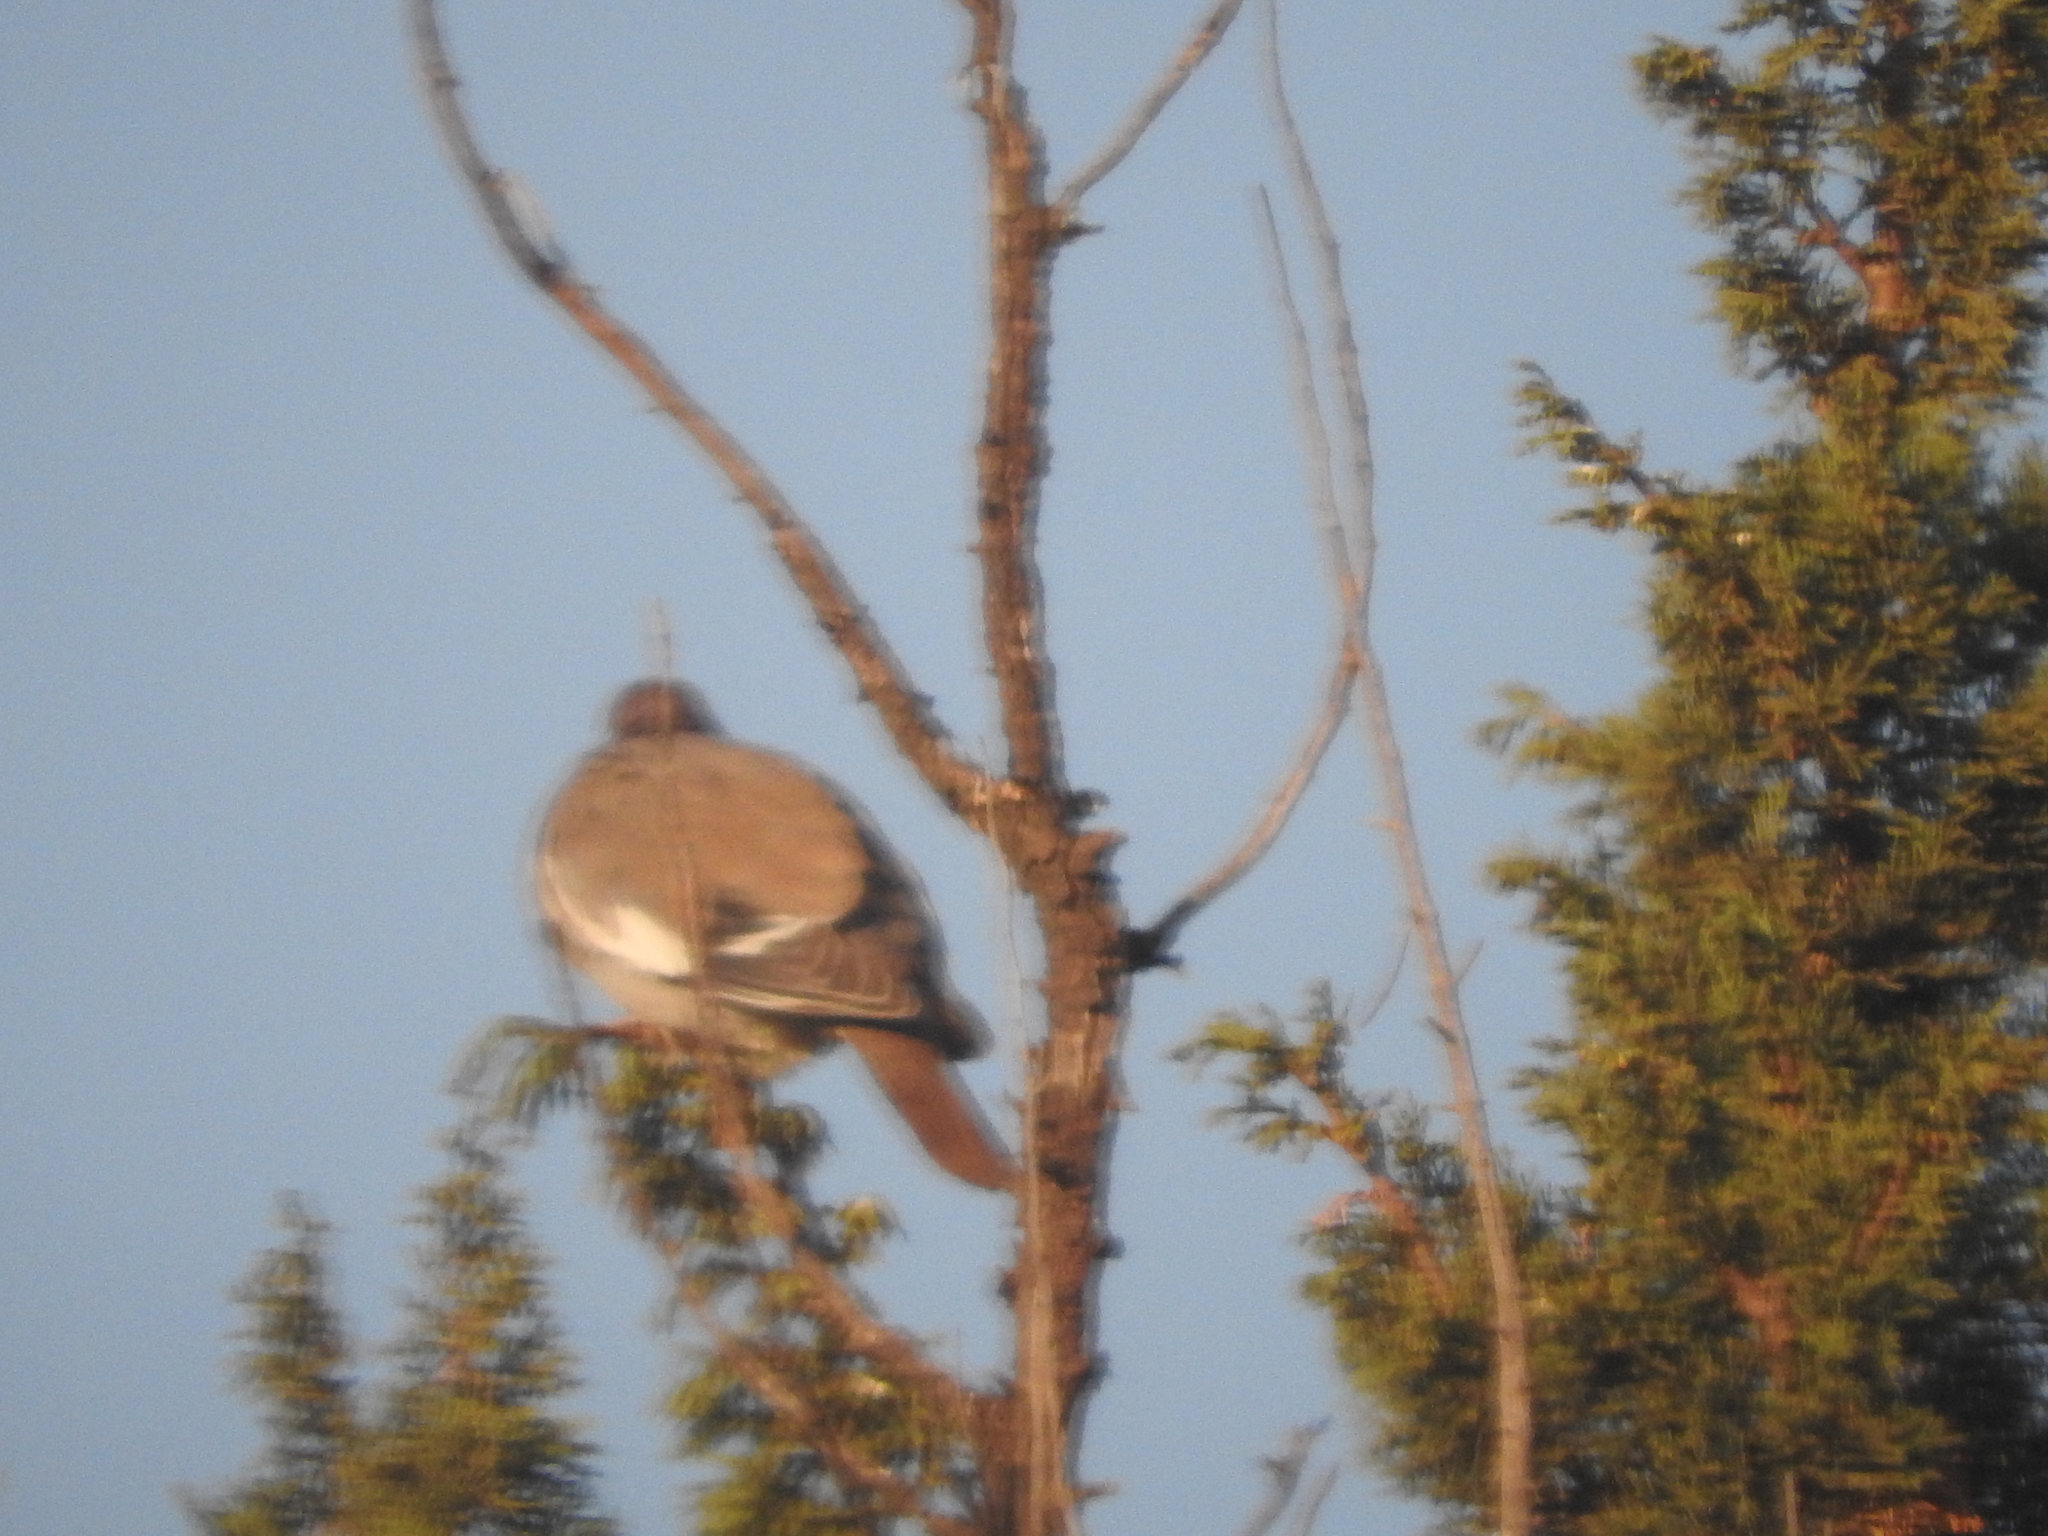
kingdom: Animalia
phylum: Chordata
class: Aves
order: Columbiformes
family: Columbidae
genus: Zenaida
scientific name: Zenaida asiatica
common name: White-winged dove
